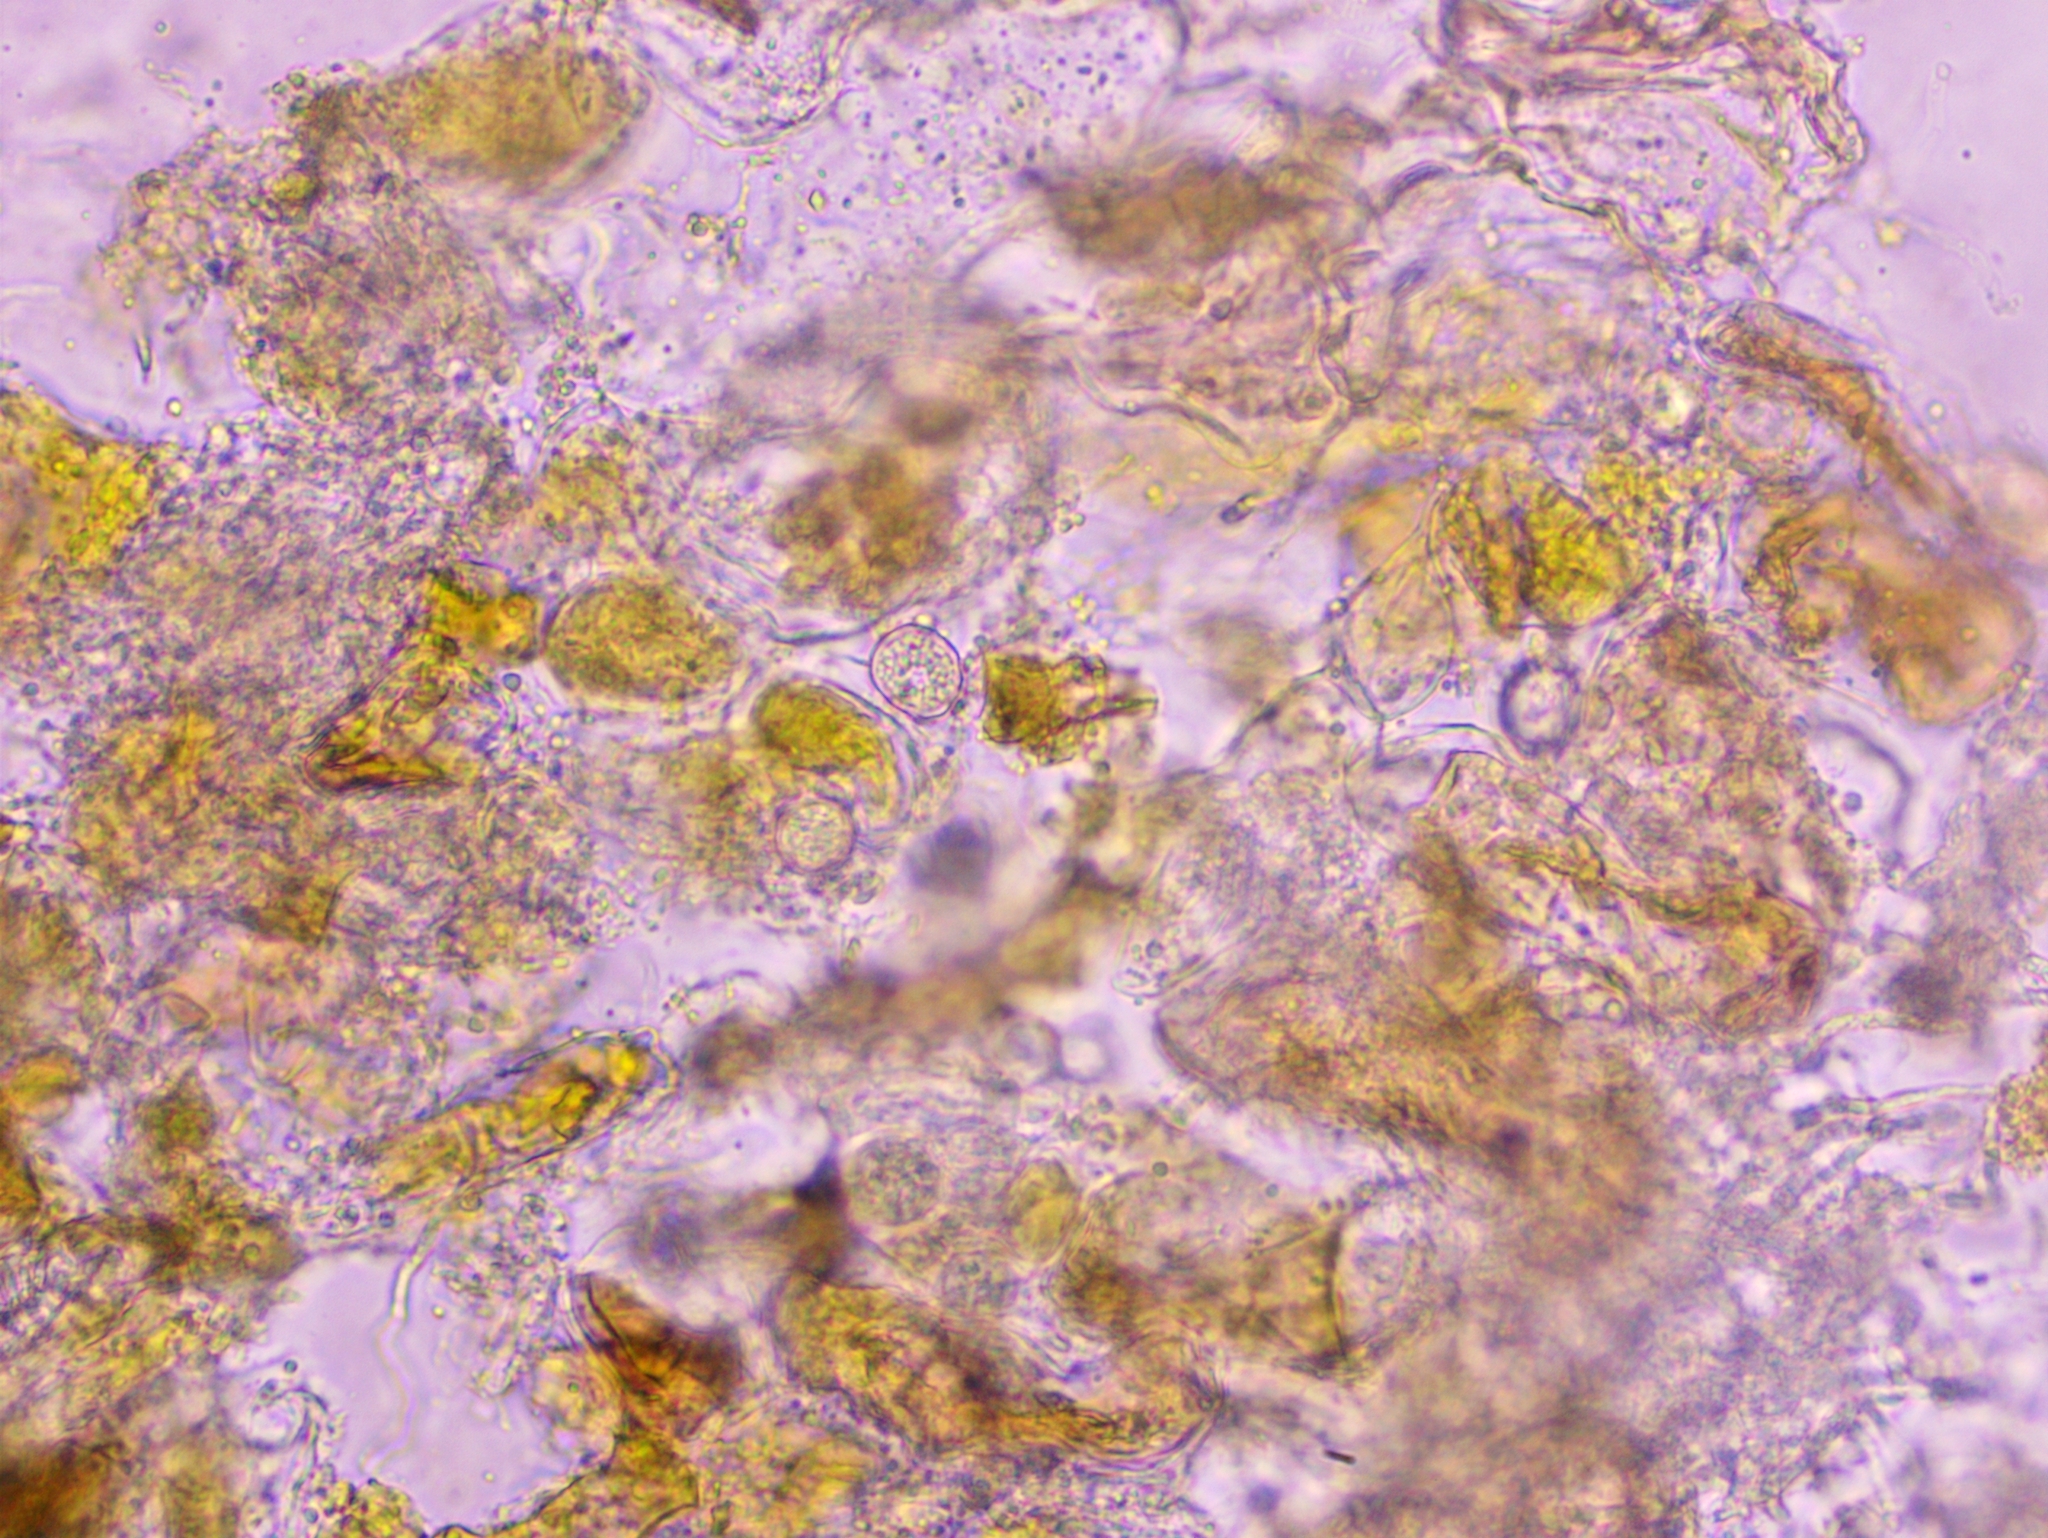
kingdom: Fungi
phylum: Basidiomycota
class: Exobasidiomycetes
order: Entylomatales
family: Entylomataceae
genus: Entyloma
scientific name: Entyloma eburneum
